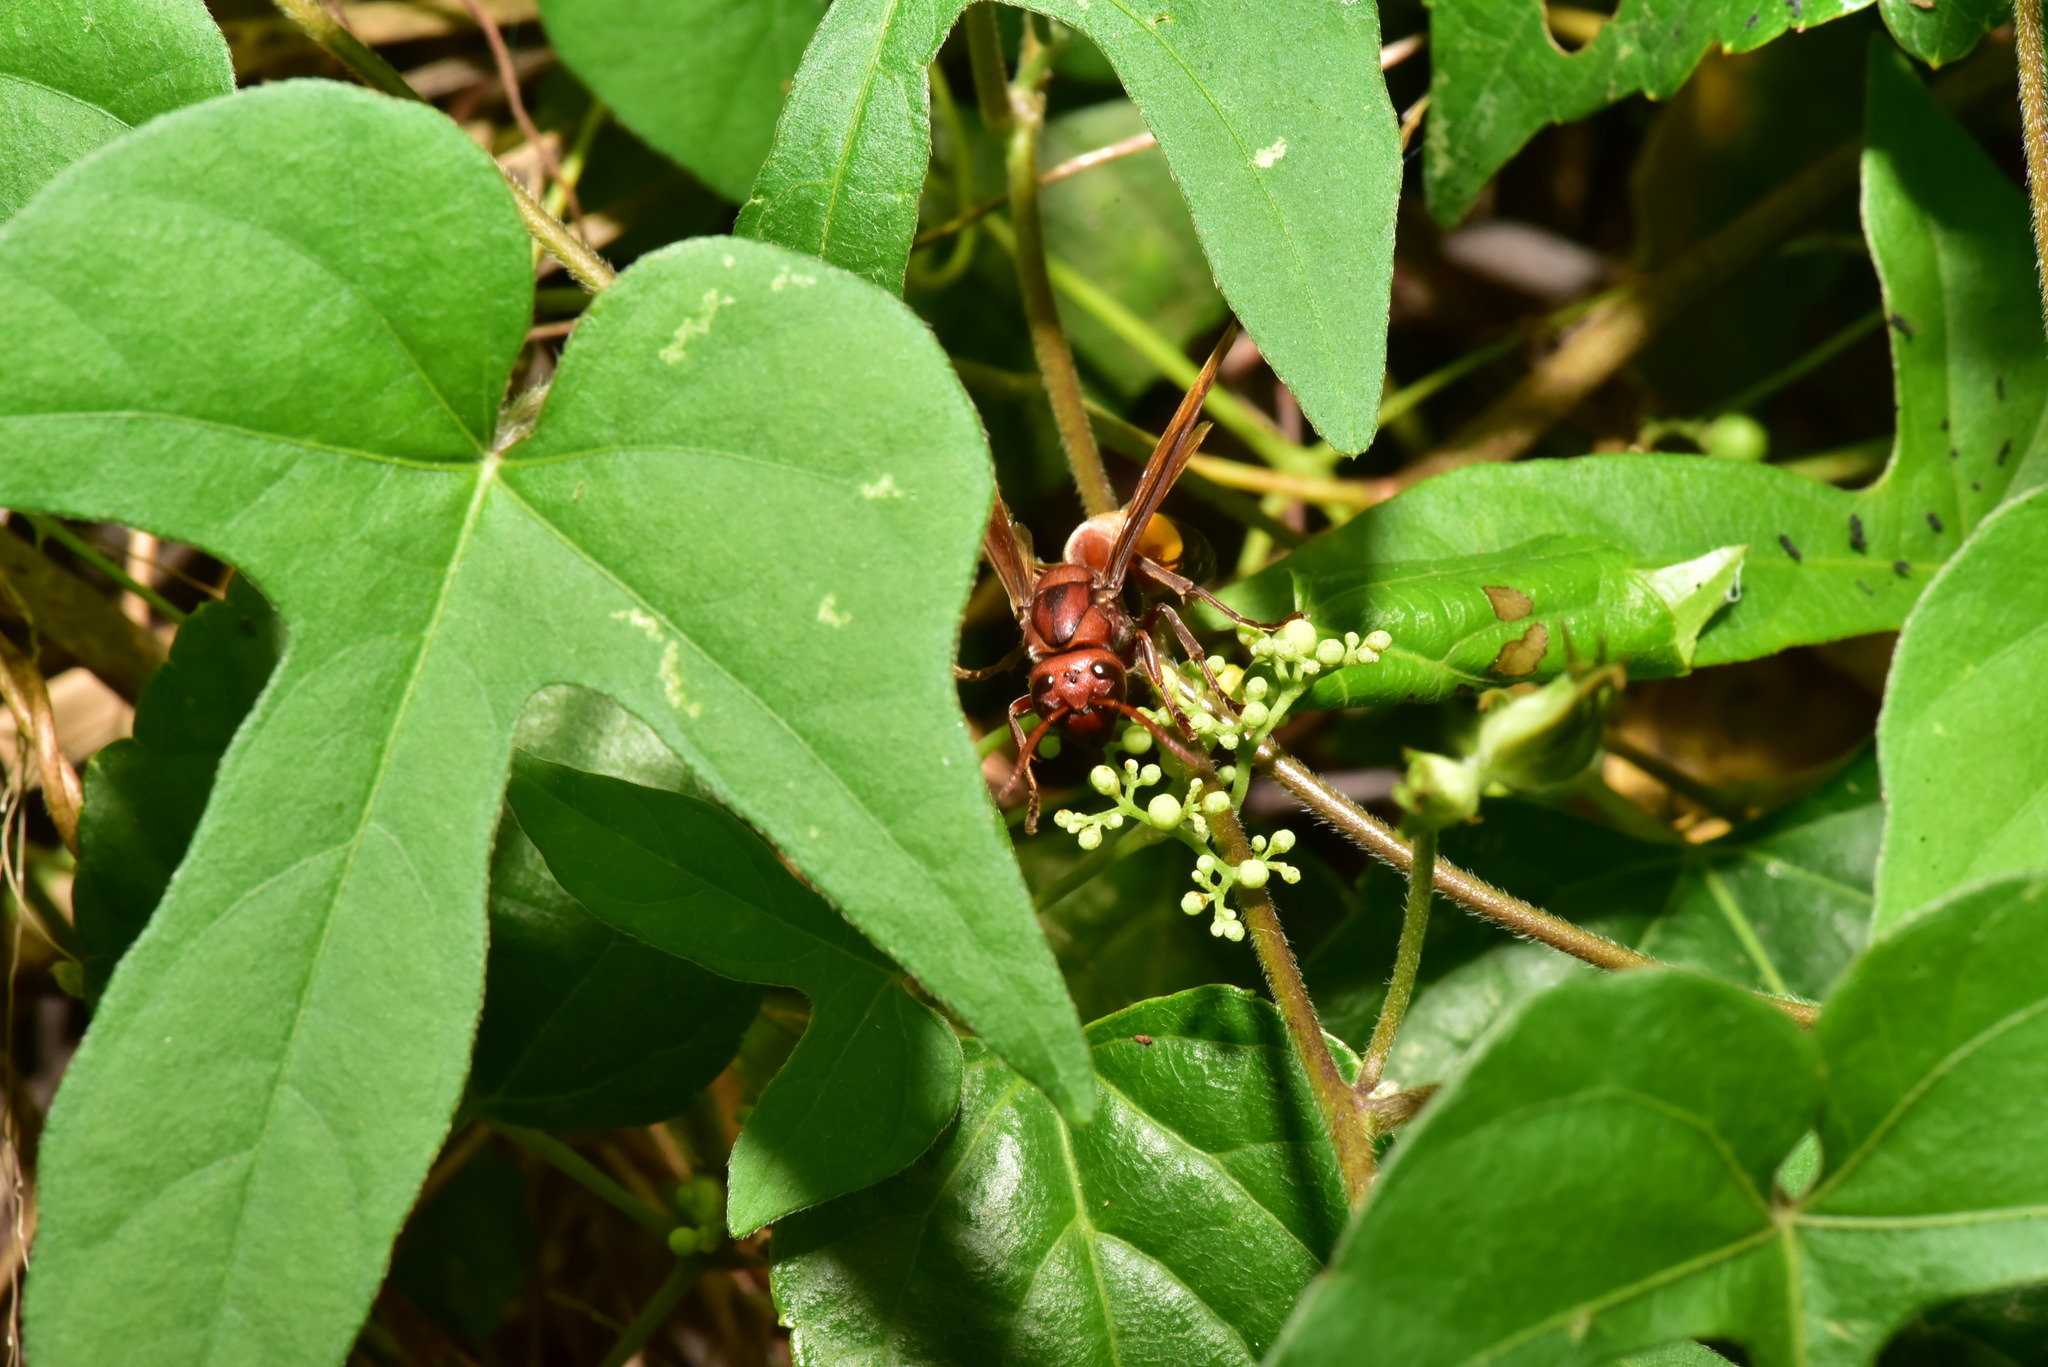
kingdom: Animalia
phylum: Arthropoda
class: Insecta
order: Hymenoptera
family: Vespidae
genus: Vespa
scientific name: Vespa affinis
